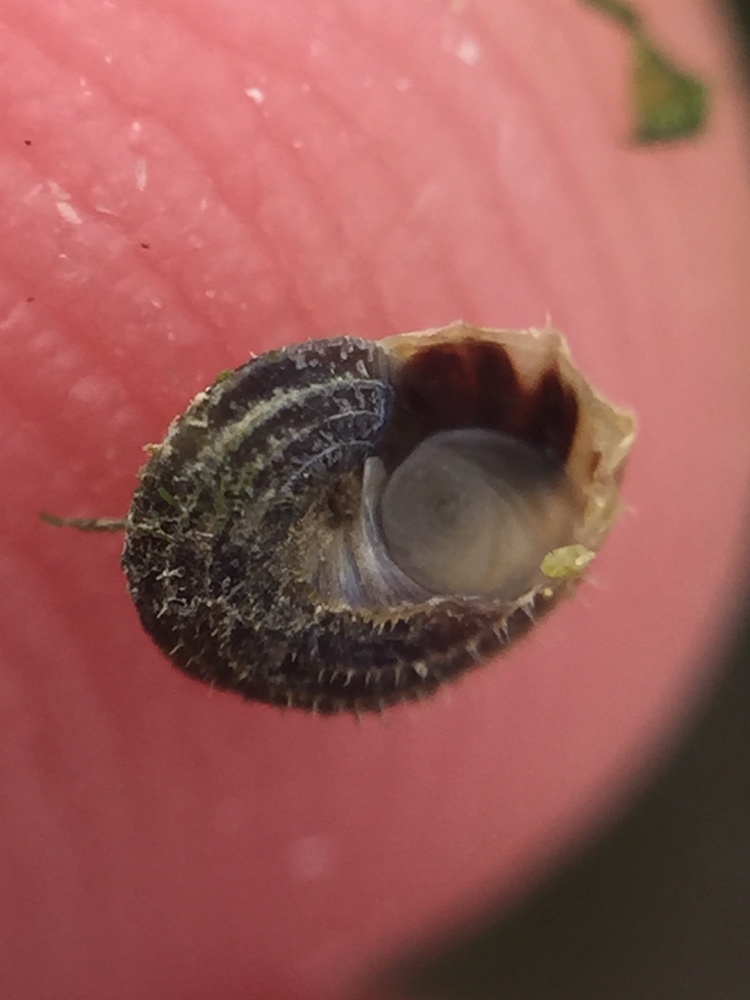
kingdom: Animalia
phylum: Mollusca
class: Gastropoda
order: Littorinimorpha
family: Littorinidae
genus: Risellopsis
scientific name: Risellopsis varia
